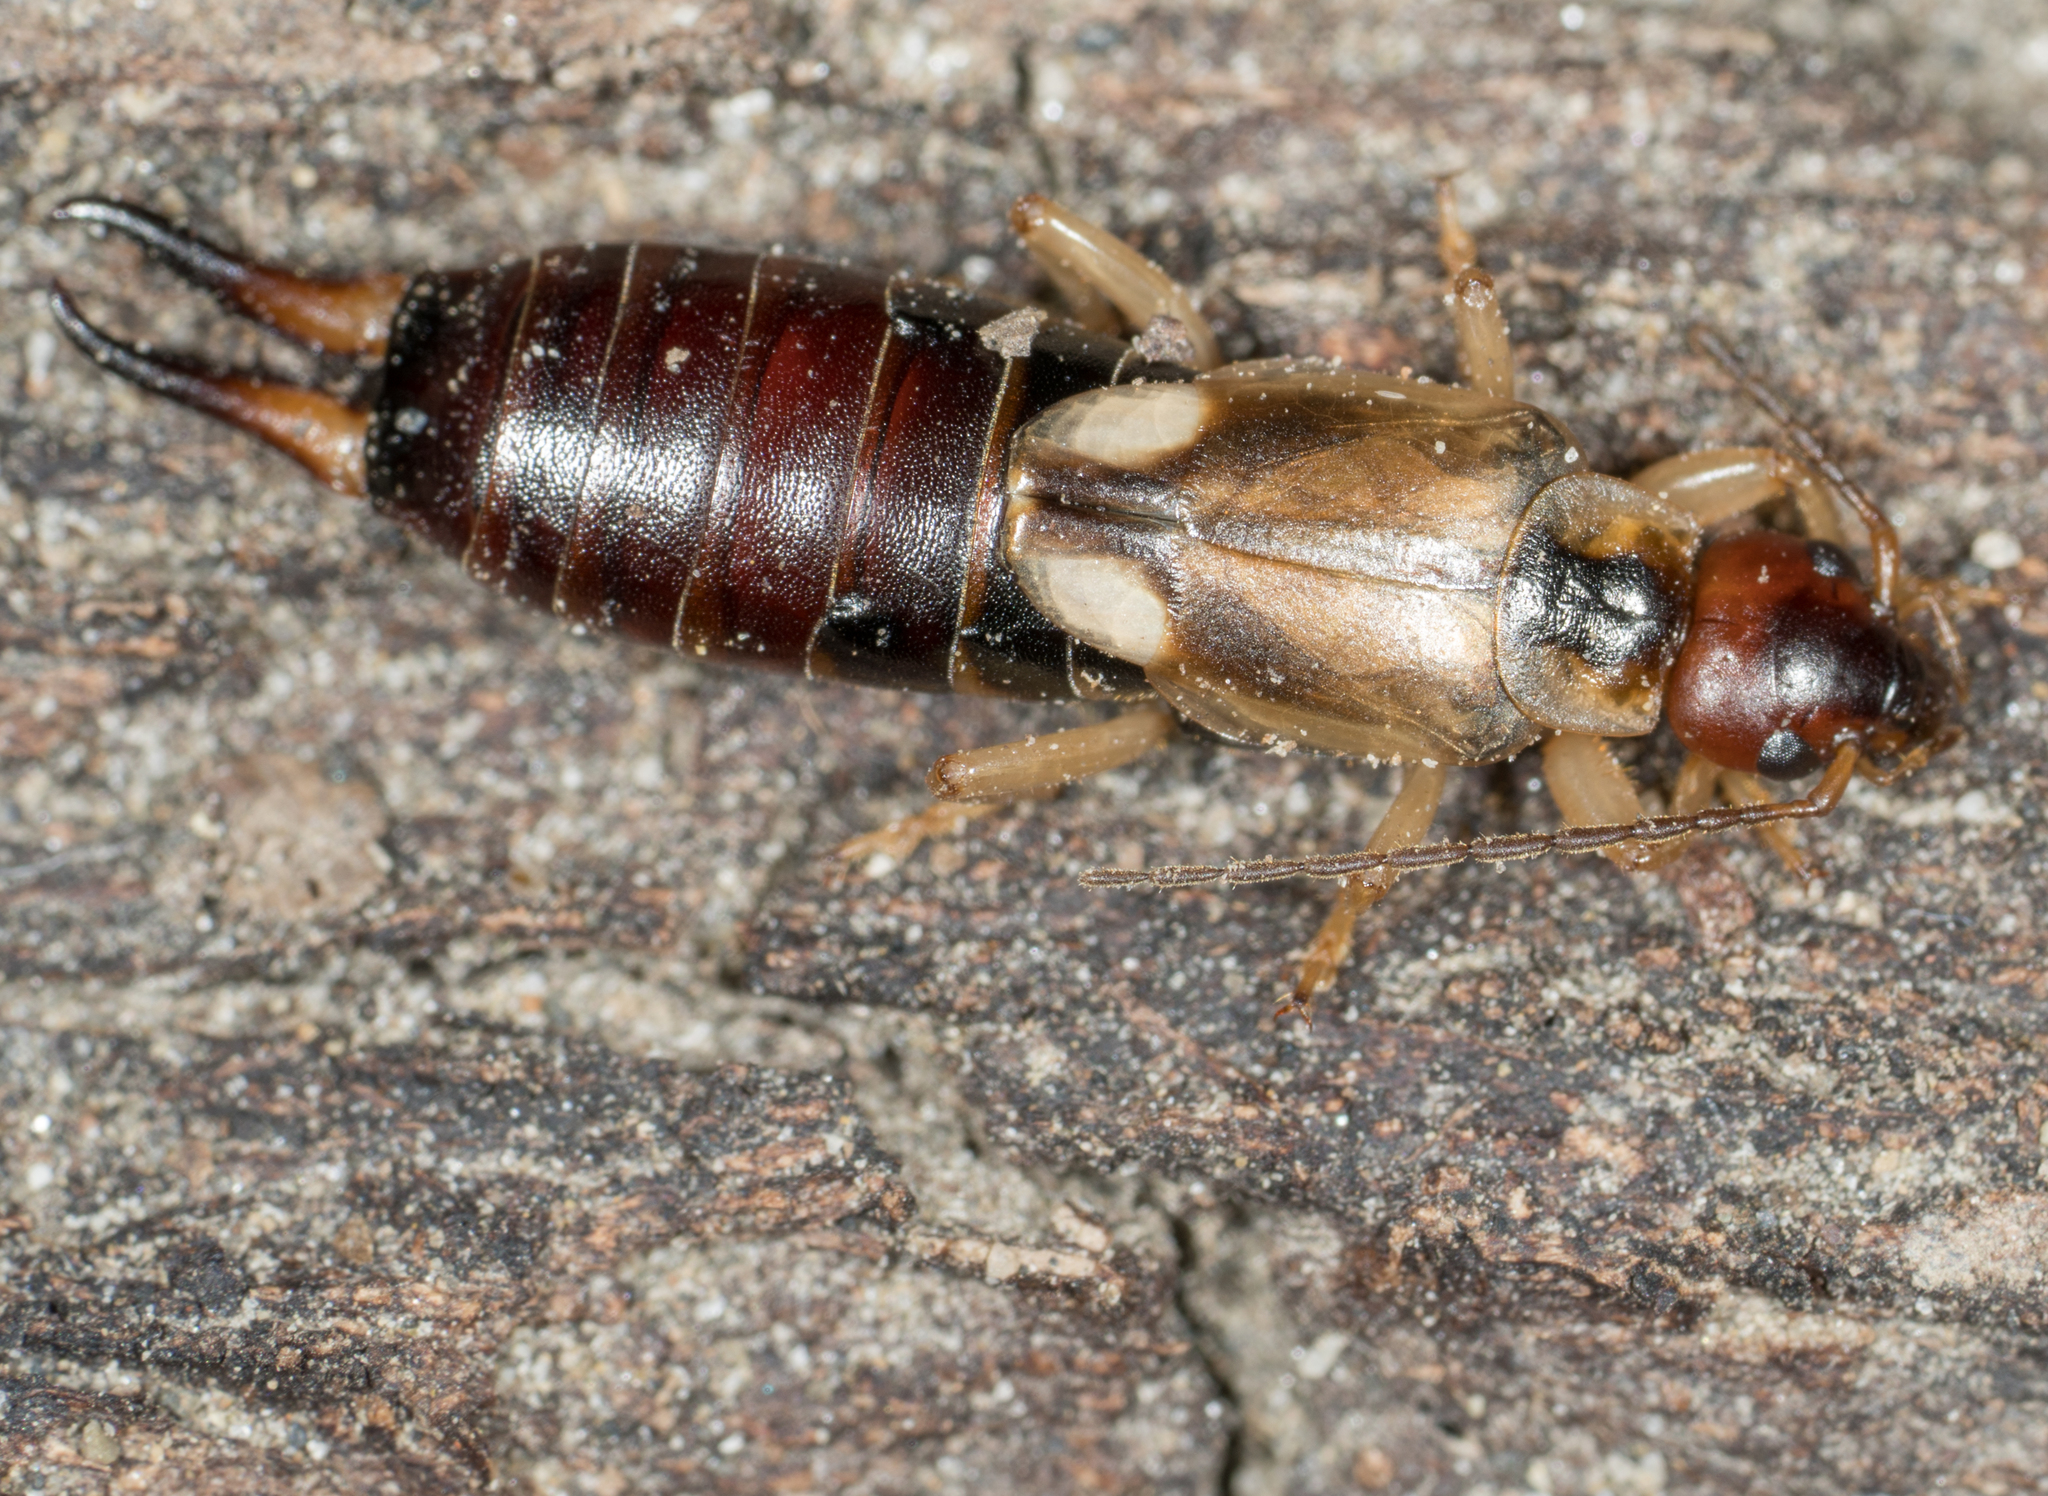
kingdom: Animalia
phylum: Arthropoda
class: Insecta
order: Dermaptera
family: Forficulidae
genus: Forficula
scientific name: Forficula
